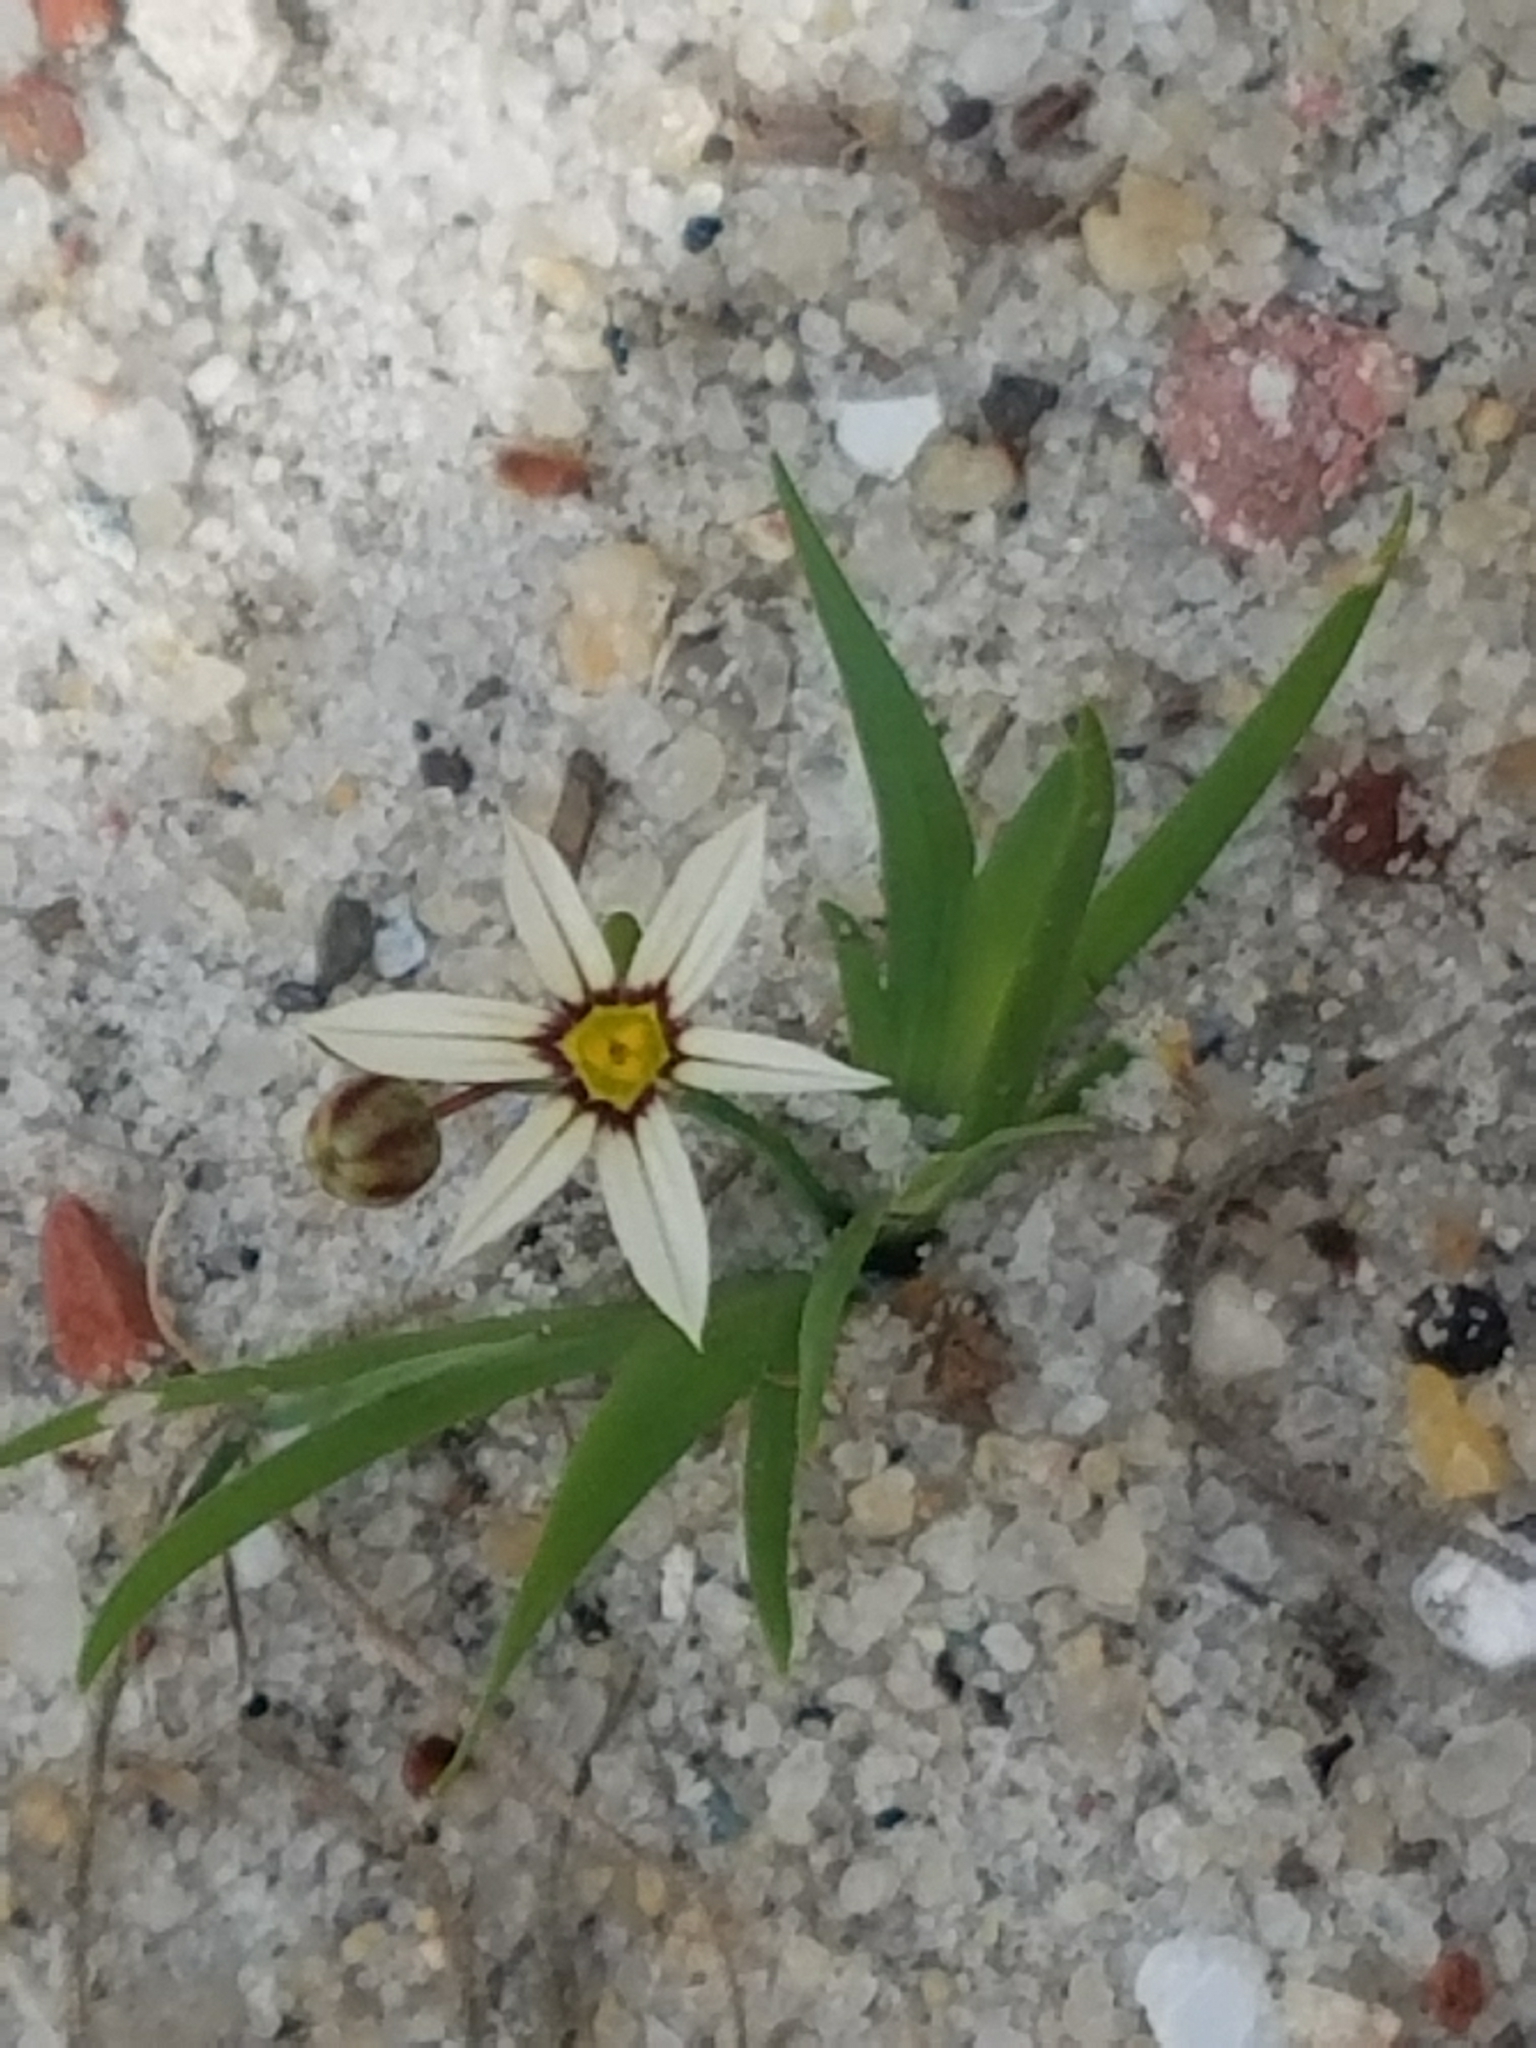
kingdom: Plantae
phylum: Tracheophyta
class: Liliopsida
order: Asparagales
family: Iridaceae
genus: Sisyrinchium
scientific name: Sisyrinchium micranthum
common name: Bermuda pigroot
